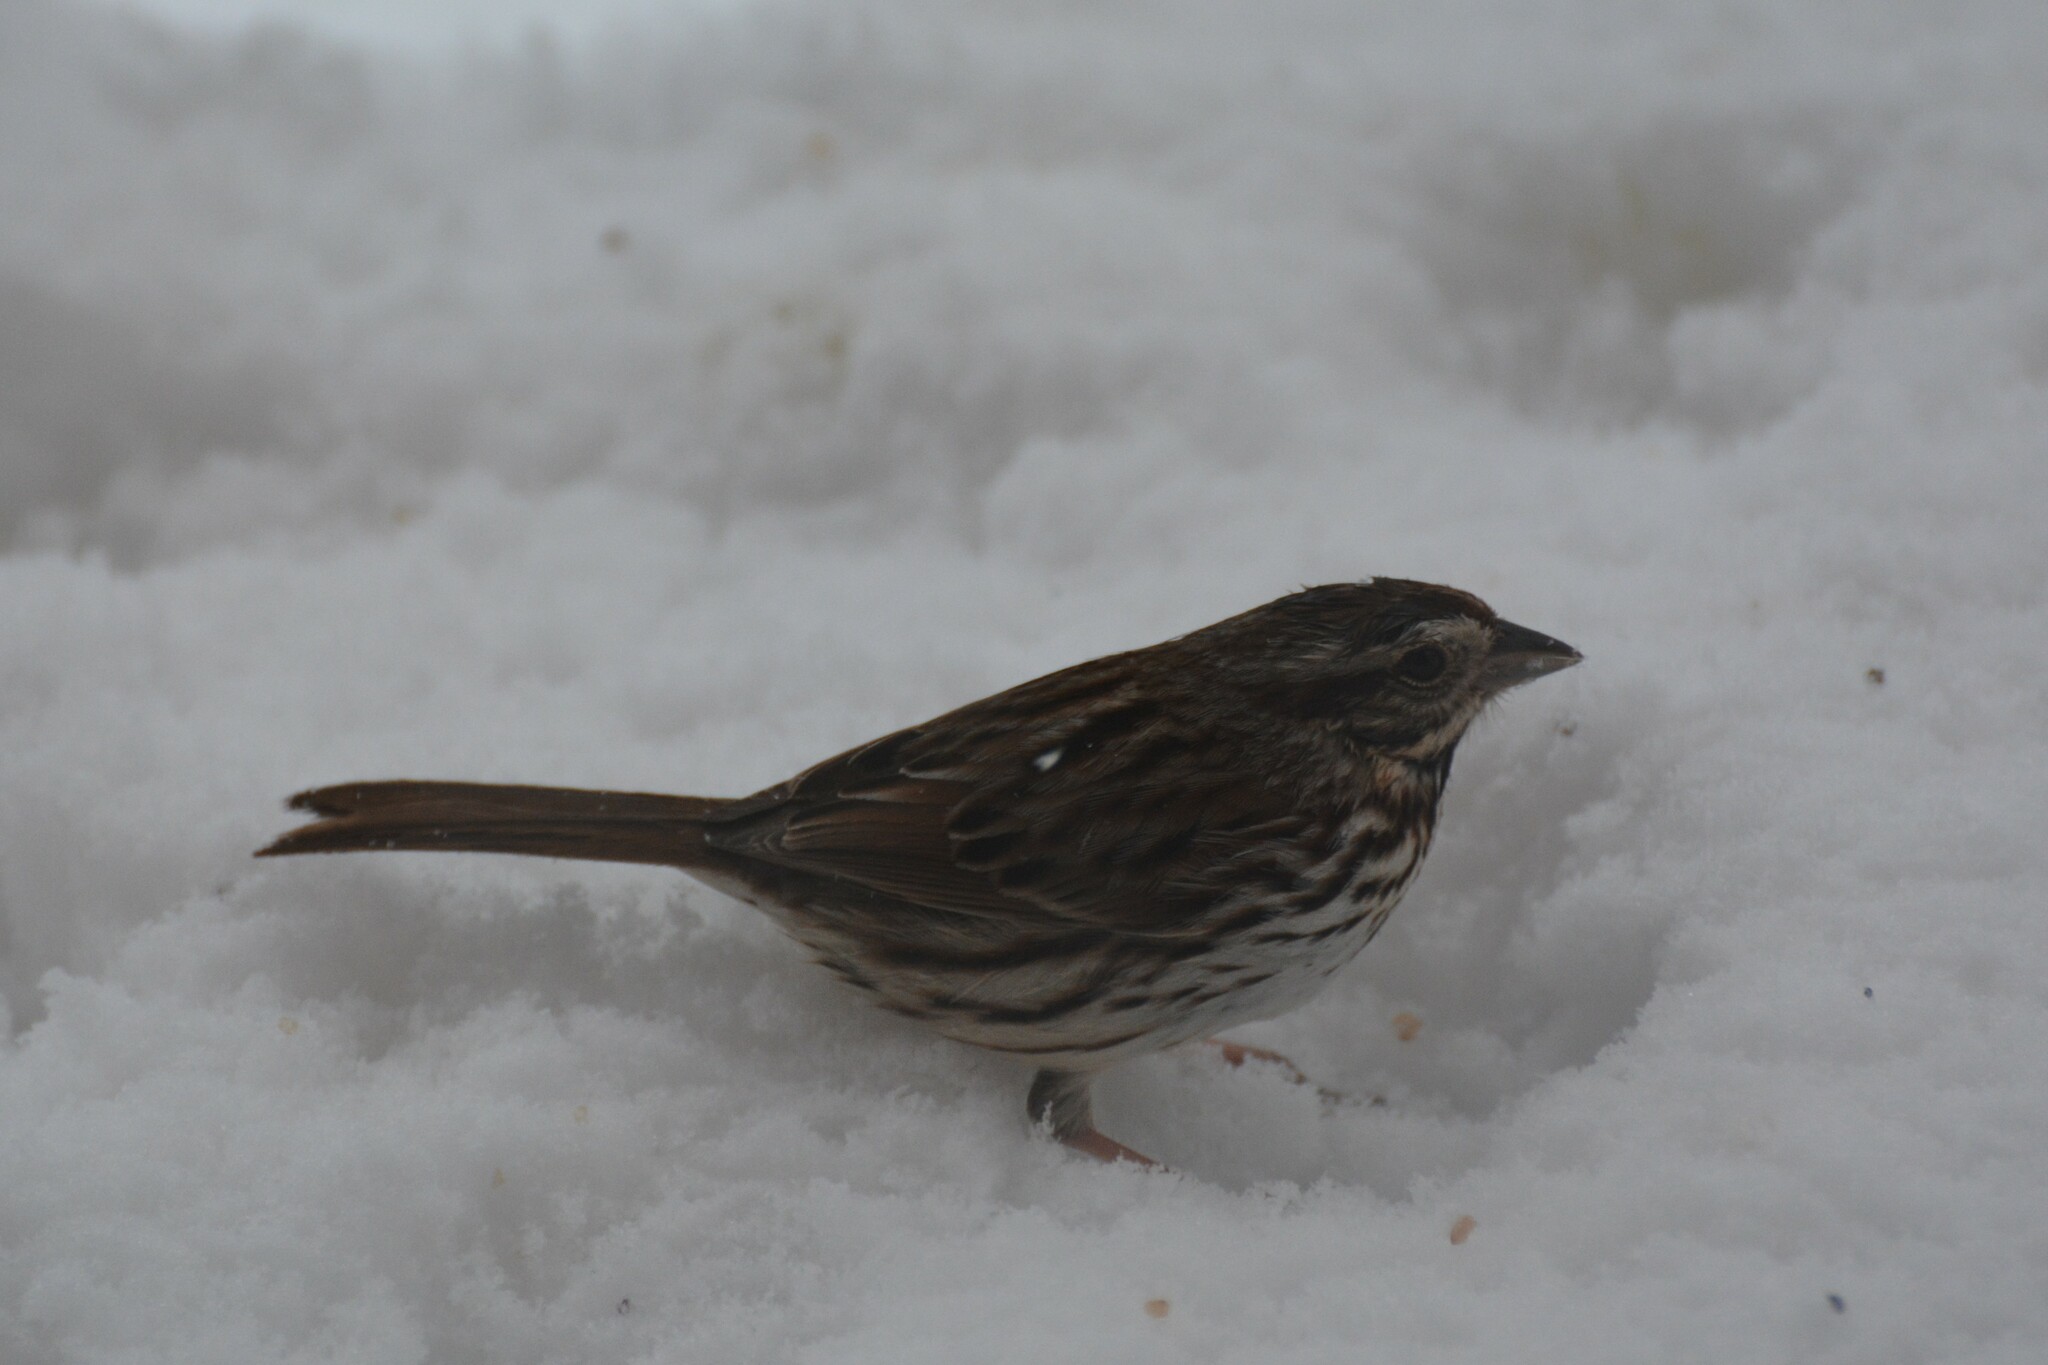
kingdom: Animalia
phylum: Chordata
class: Aves
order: Passeriformes
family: Passerellidae
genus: Melospiza
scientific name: Melospiza melodia
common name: Song sparrow
